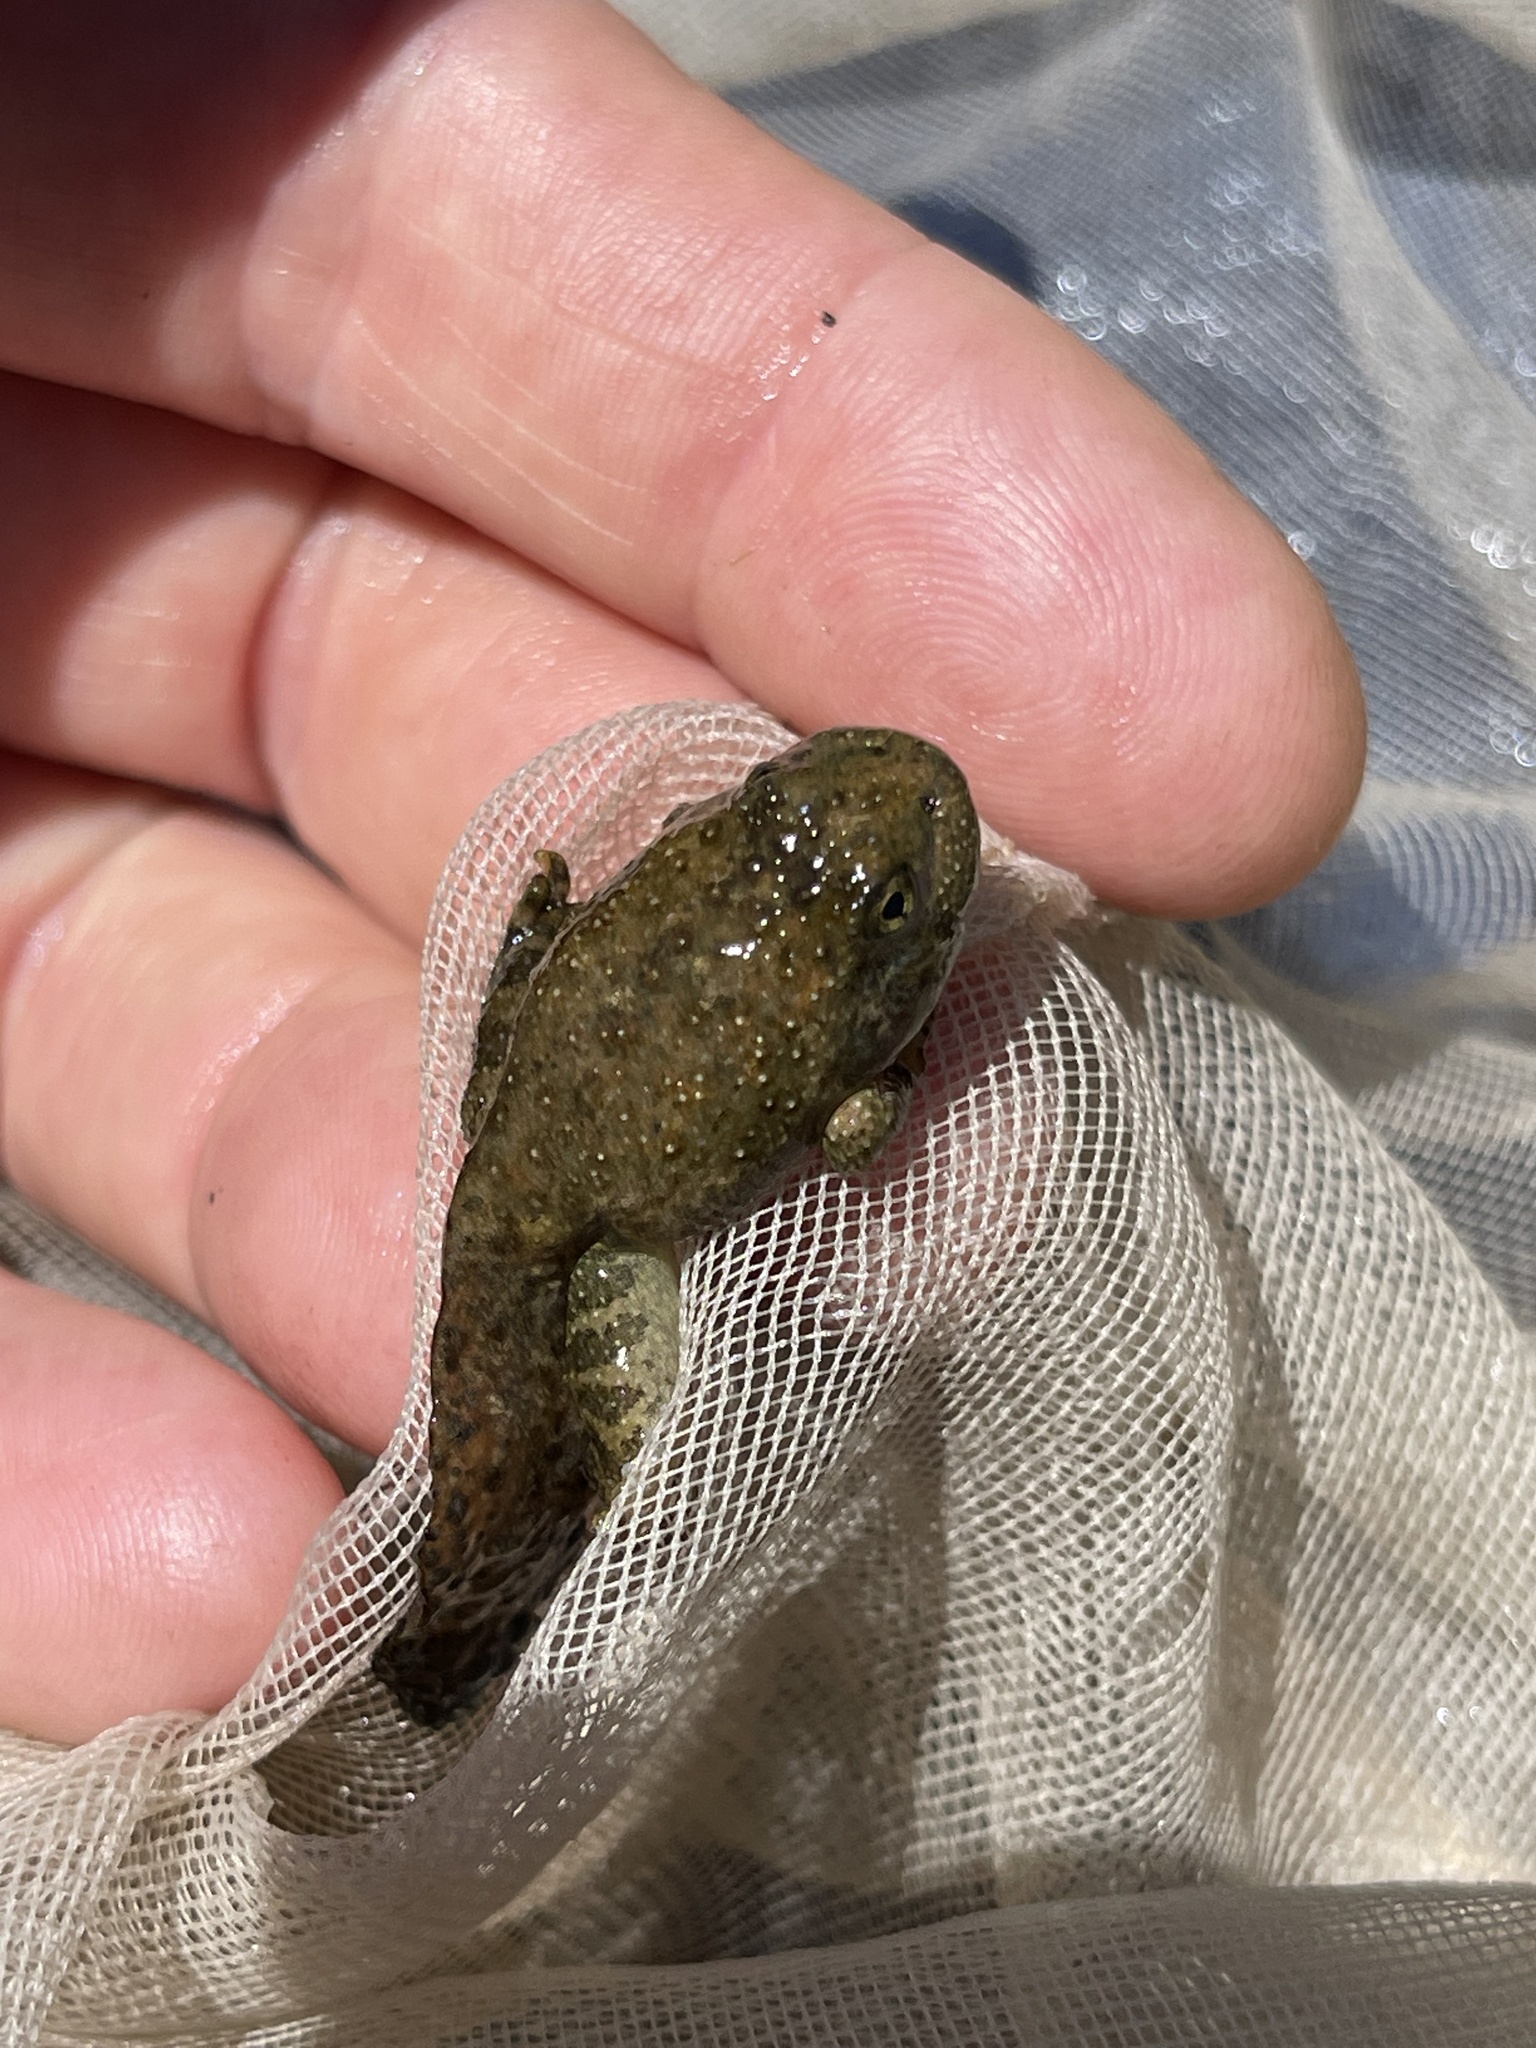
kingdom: Animalia
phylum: Chordata
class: Amphibia
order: Anura
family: Ranidae
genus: Rana
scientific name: Rana boylii
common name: Foothill yellow-legged frog
